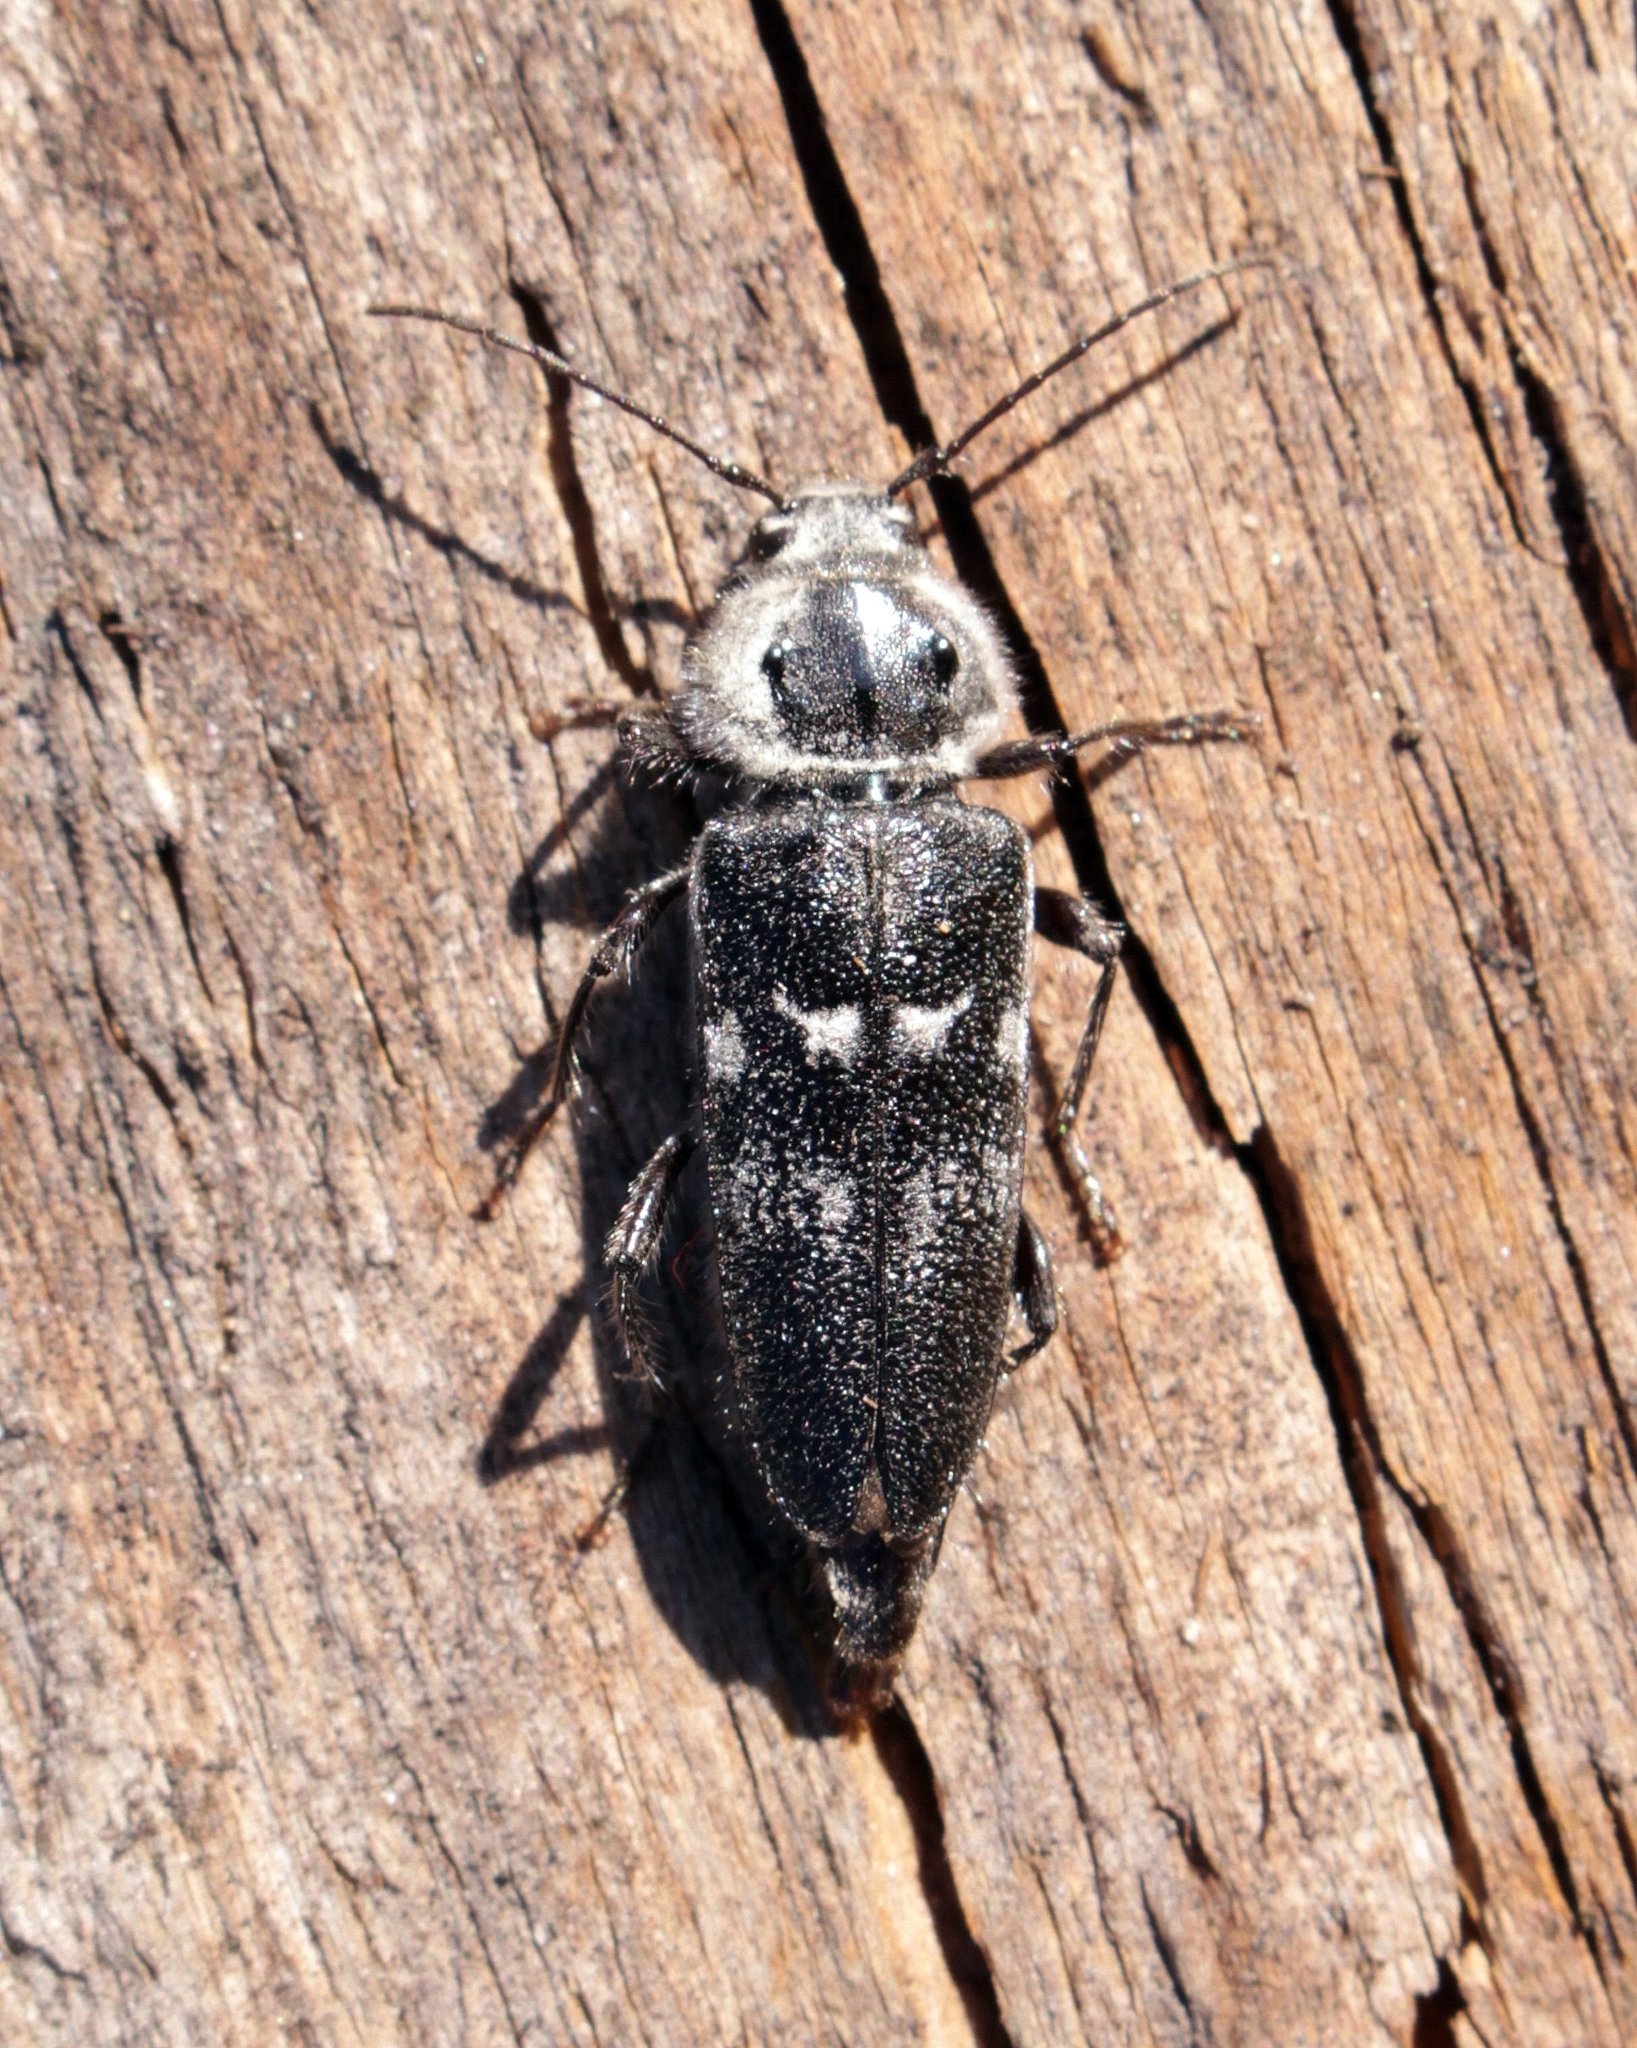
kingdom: Animalia
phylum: Arthropoda
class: Insecta
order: Coleoptera
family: Cerambycidae
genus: Hylotrupes
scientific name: Hylotrupes bajulus
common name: Old house borer
